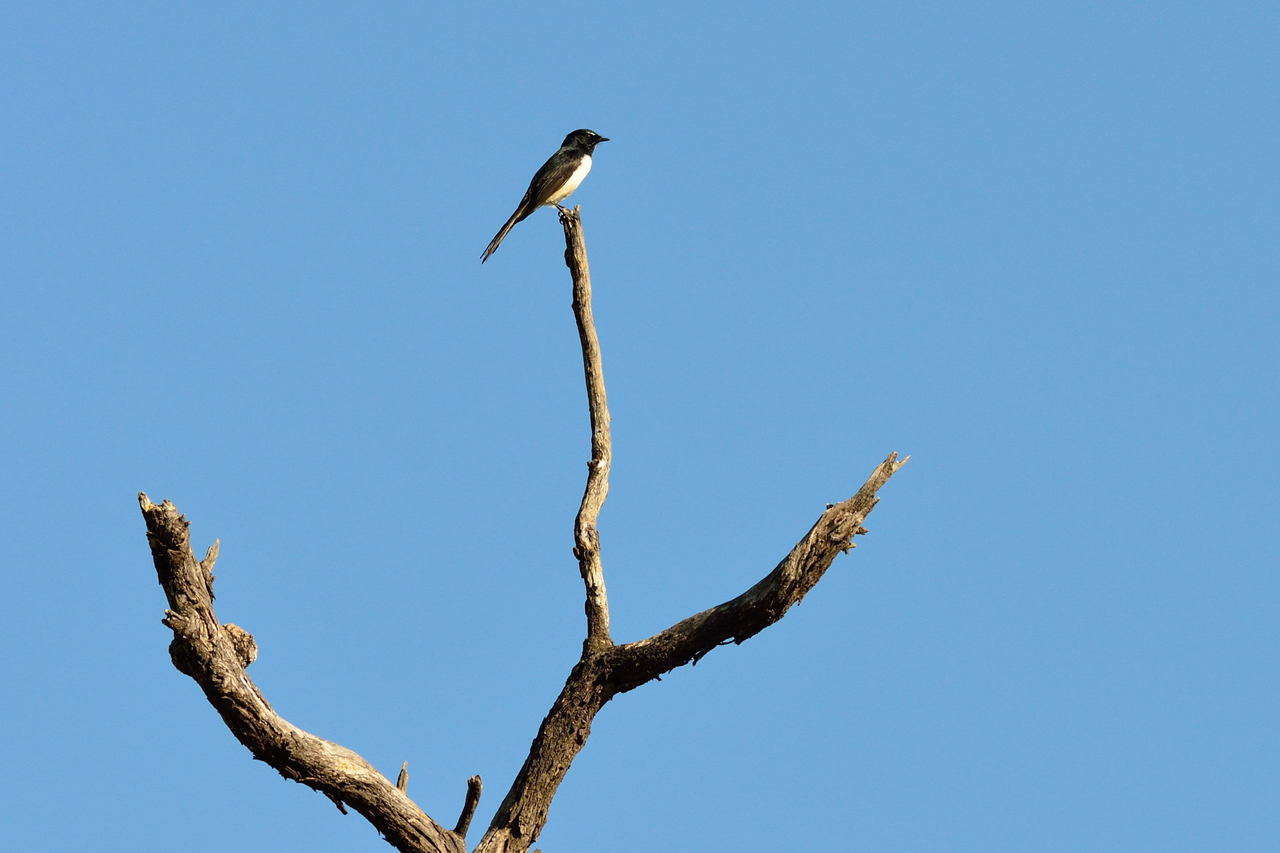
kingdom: Animalia
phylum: Chordata
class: Aves
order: Passeriformes
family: Rhipiduridae
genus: Rhipidura
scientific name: Rhipidura leucophrys
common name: Willie wagtail
